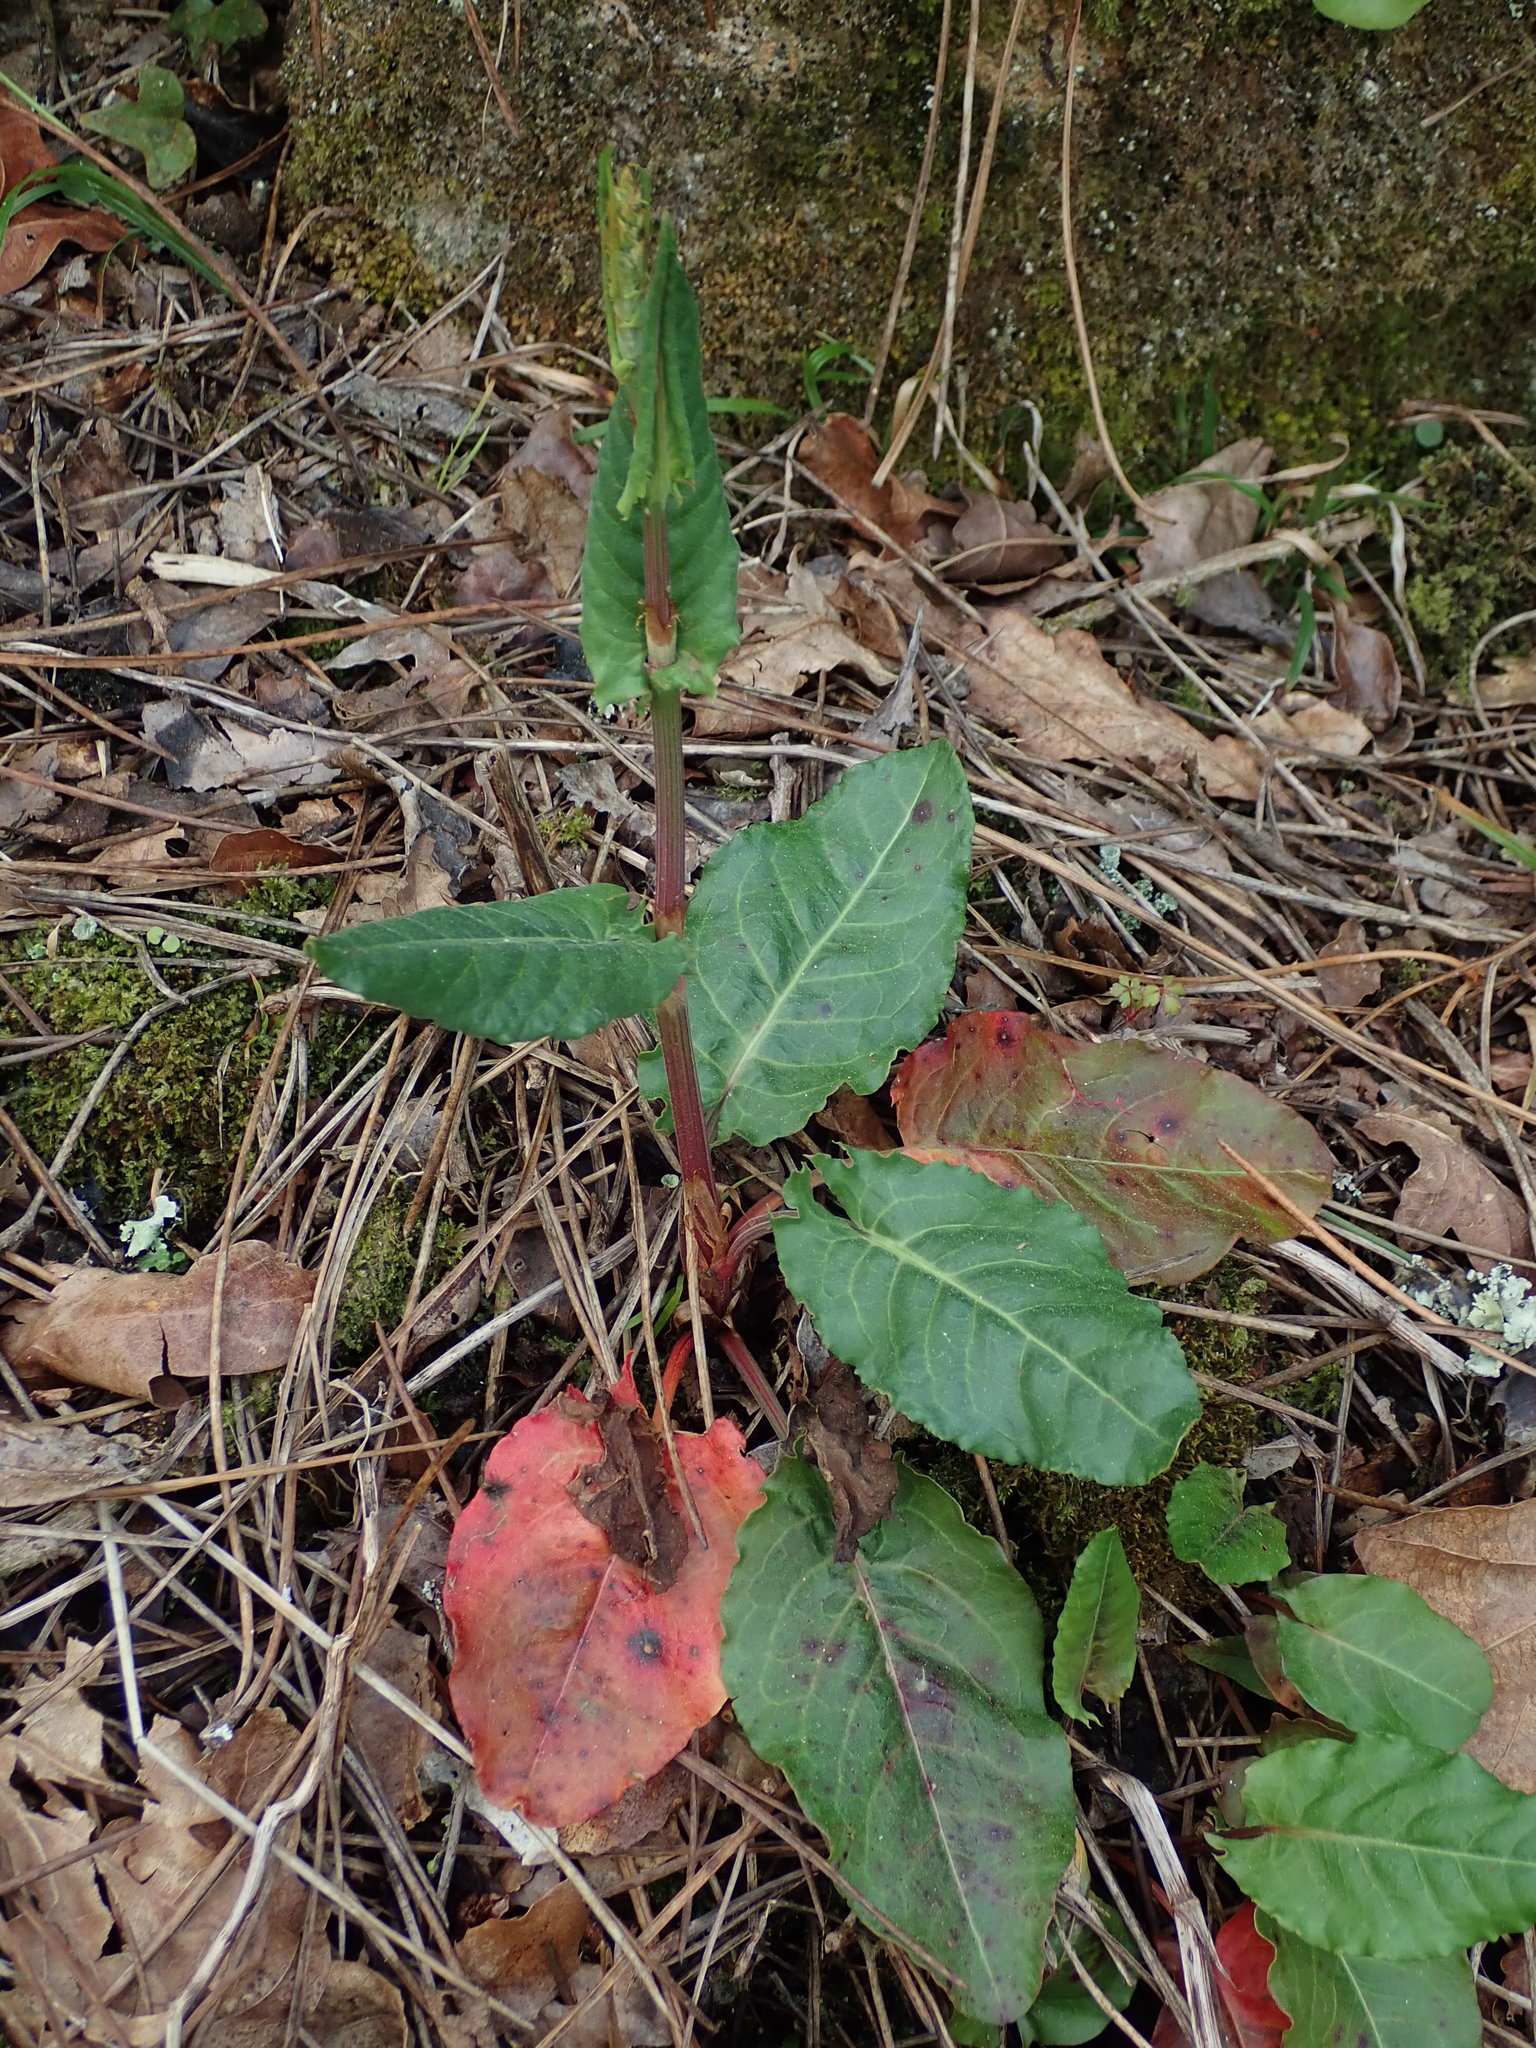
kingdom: Plantae
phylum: Tracheophyta
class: Magnoliopsida
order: Caryophyllales
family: Polygonaceae
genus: Rumex
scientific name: Rumex acetosa
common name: Garden sorrel
